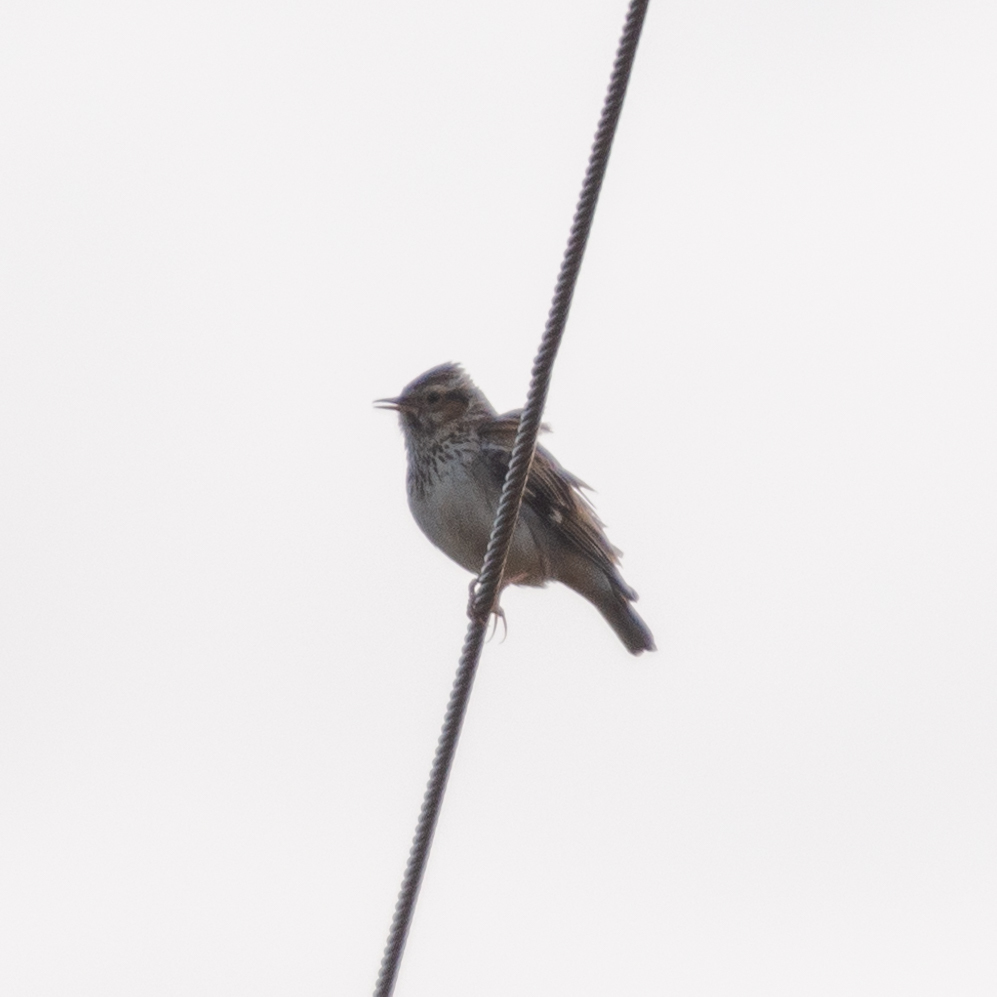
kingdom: Animalia
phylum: Chordata
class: Aves
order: Passeriformes
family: Alaudidae
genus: Lullula
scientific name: Lullula arborea
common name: Woodlark
